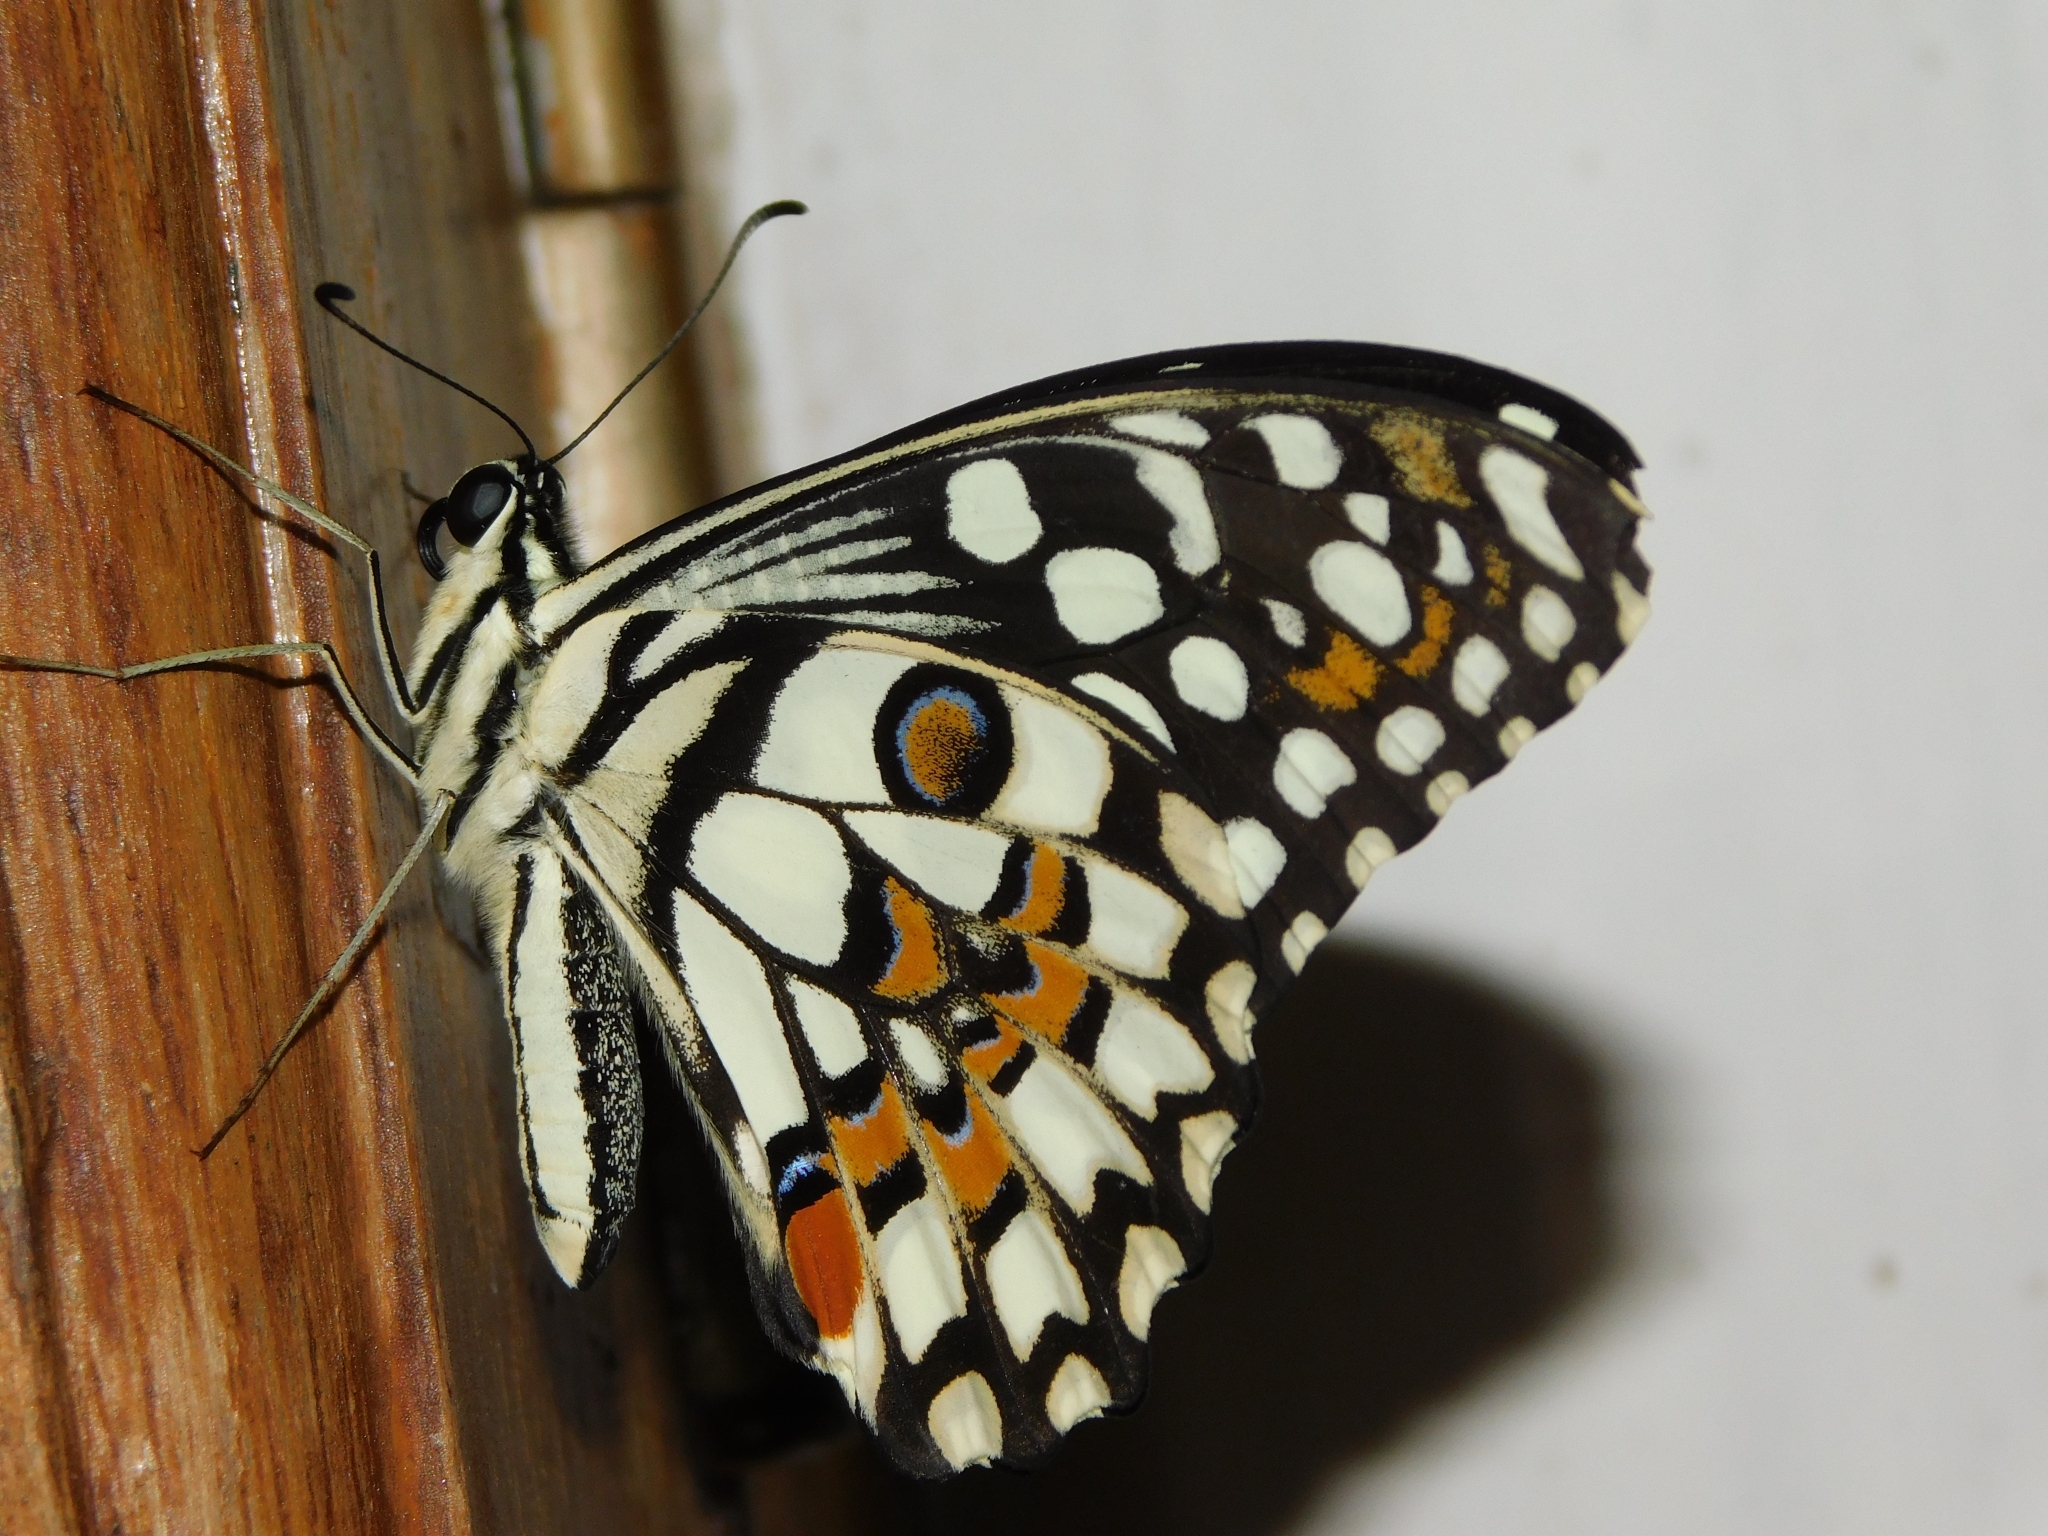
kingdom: Animalia
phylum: Arthropoda
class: Insecta
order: Lepidoptera
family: Papilionidae
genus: Papilio
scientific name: Papilio demoleus
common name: Lime butterfly
